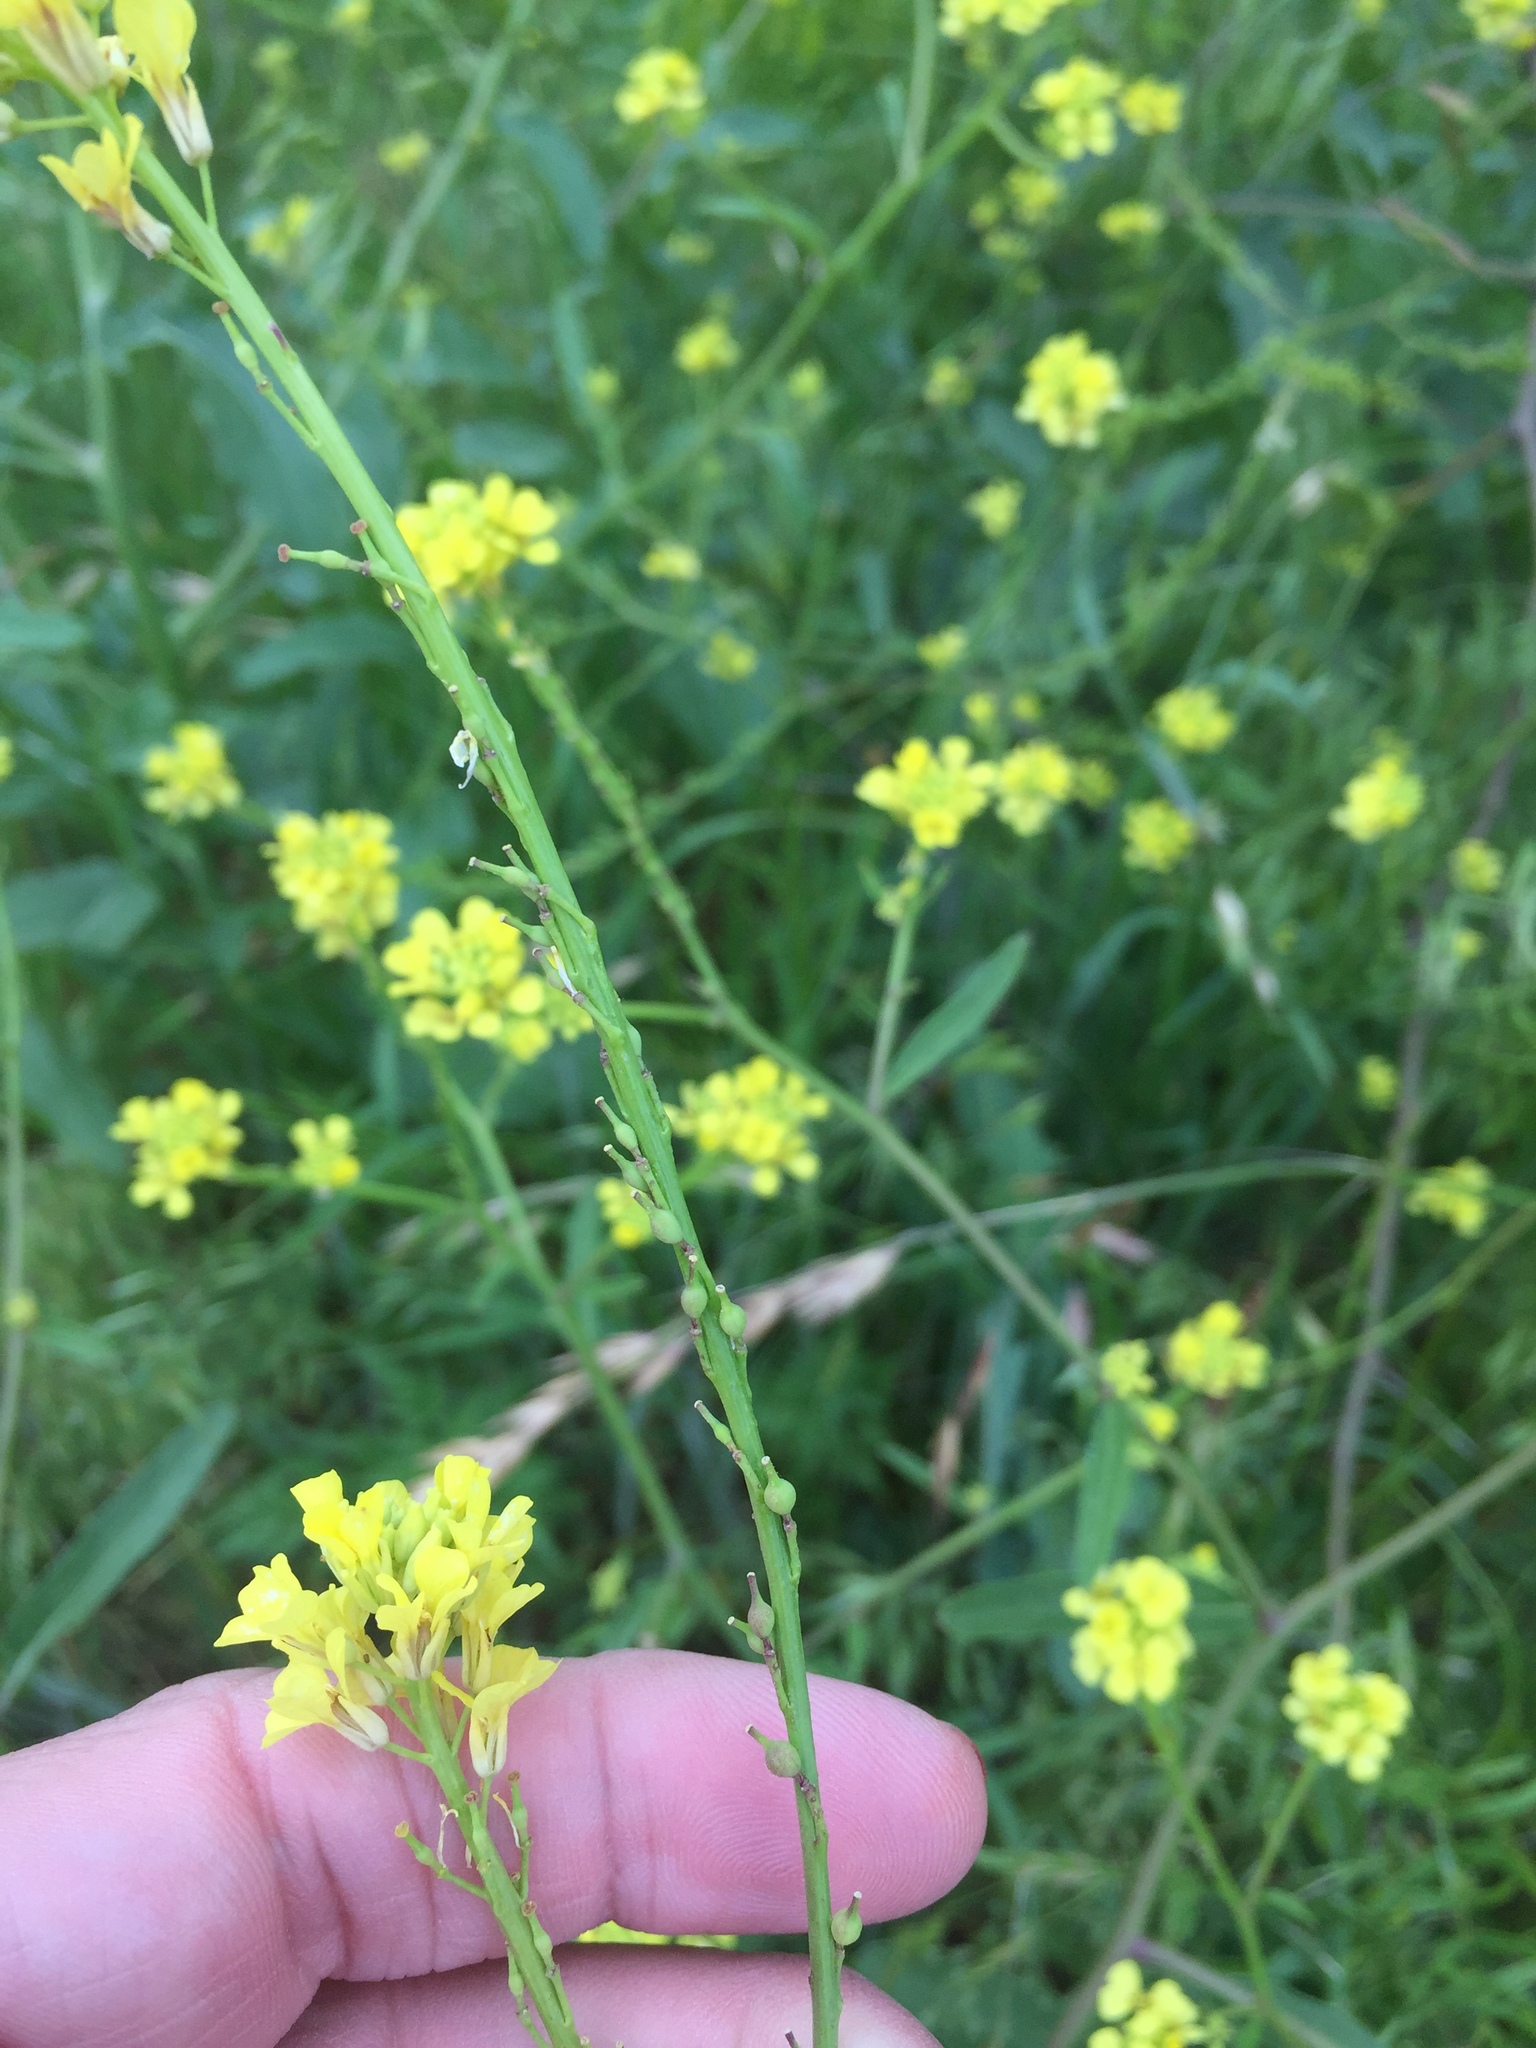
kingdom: Plantae
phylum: Tracheophyta
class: Magnoliopsida
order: Brassicales
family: Brassicaceae
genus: Rapistrum
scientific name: Rapistrum rugosum
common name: Annual bastardcabbage
